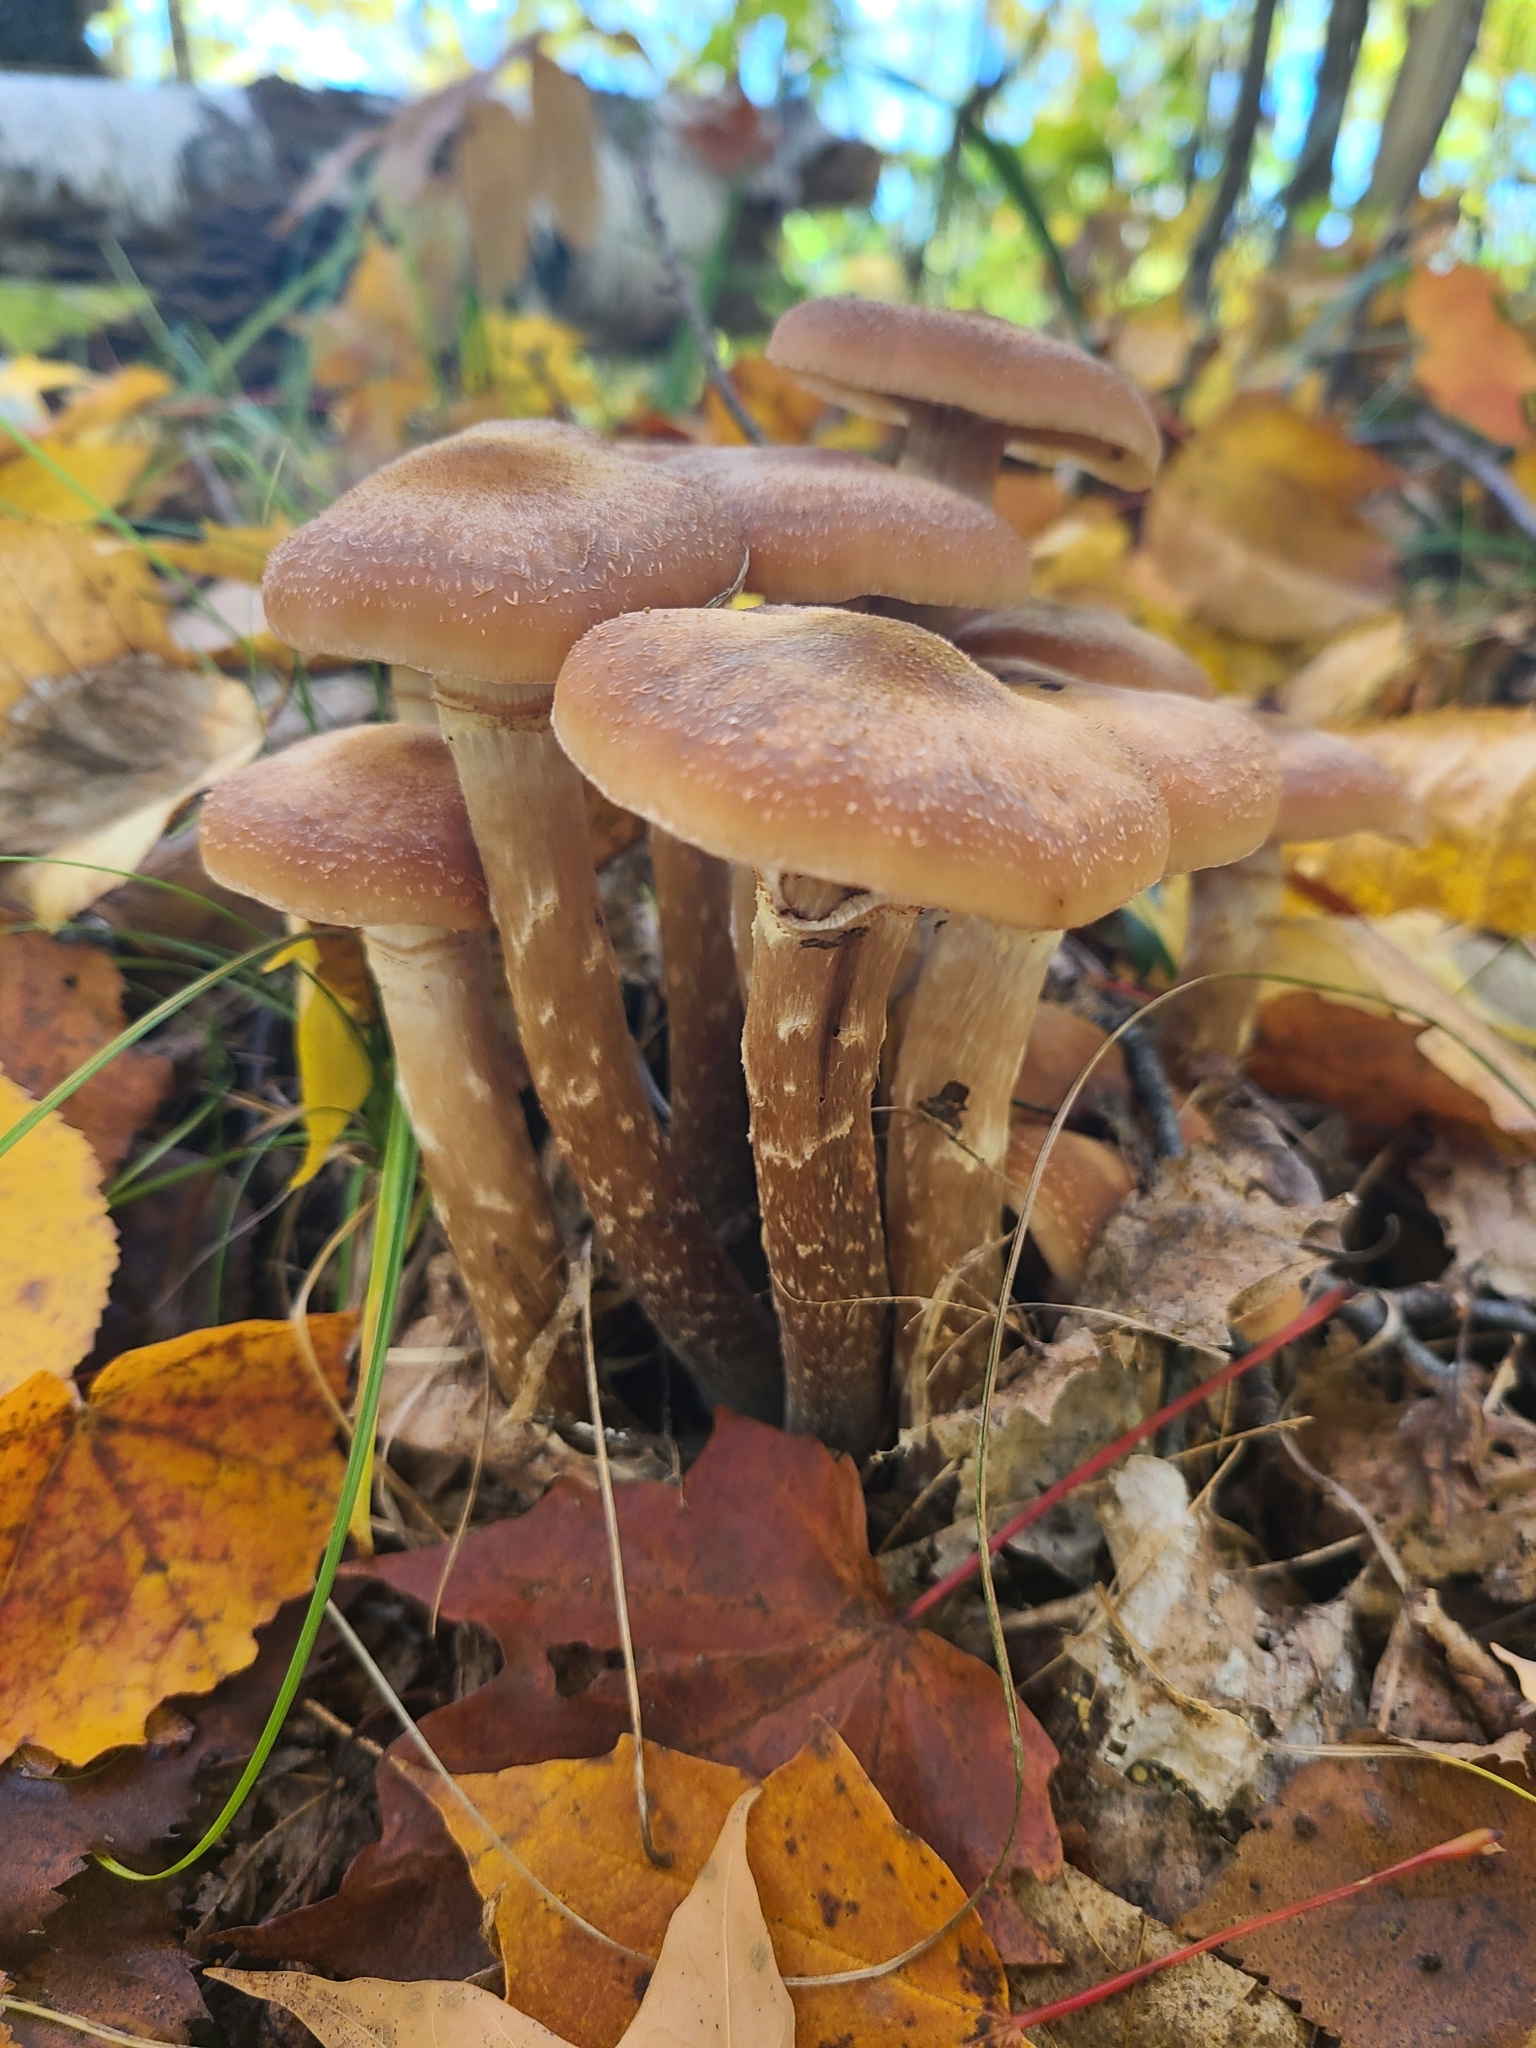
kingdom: Fungi
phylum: Basidiomycota
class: Agaricomycetes
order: Agaricales
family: Physalacriaceae
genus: Armillaria
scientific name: Armillaria mellea
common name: Honey fungus
